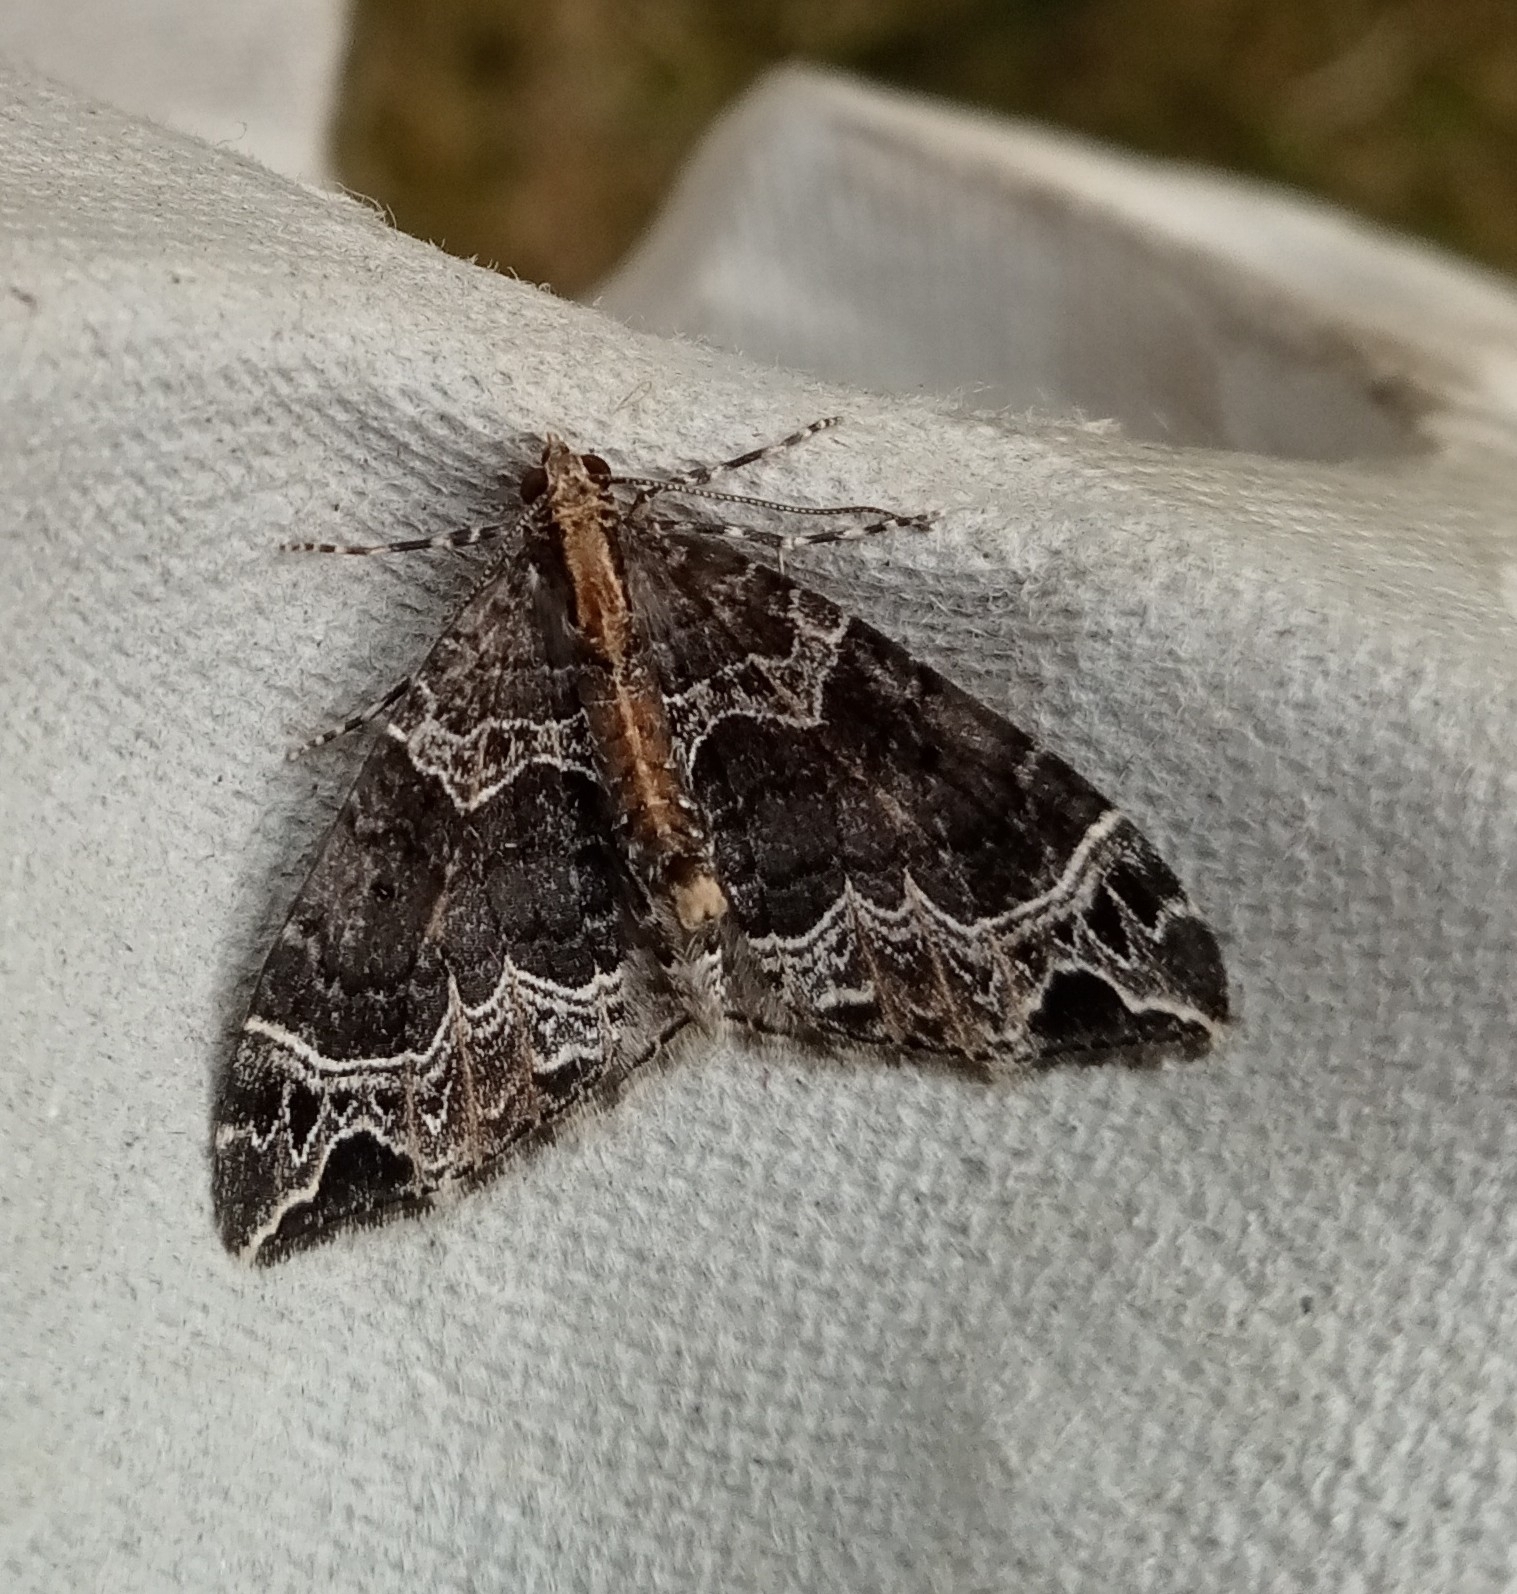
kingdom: Animalia
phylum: Arthropoda
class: Insecta
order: Lepidoptera
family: Geometridae
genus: Ecliptopera
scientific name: Ecliptopera silaceata
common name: Small phoenix
